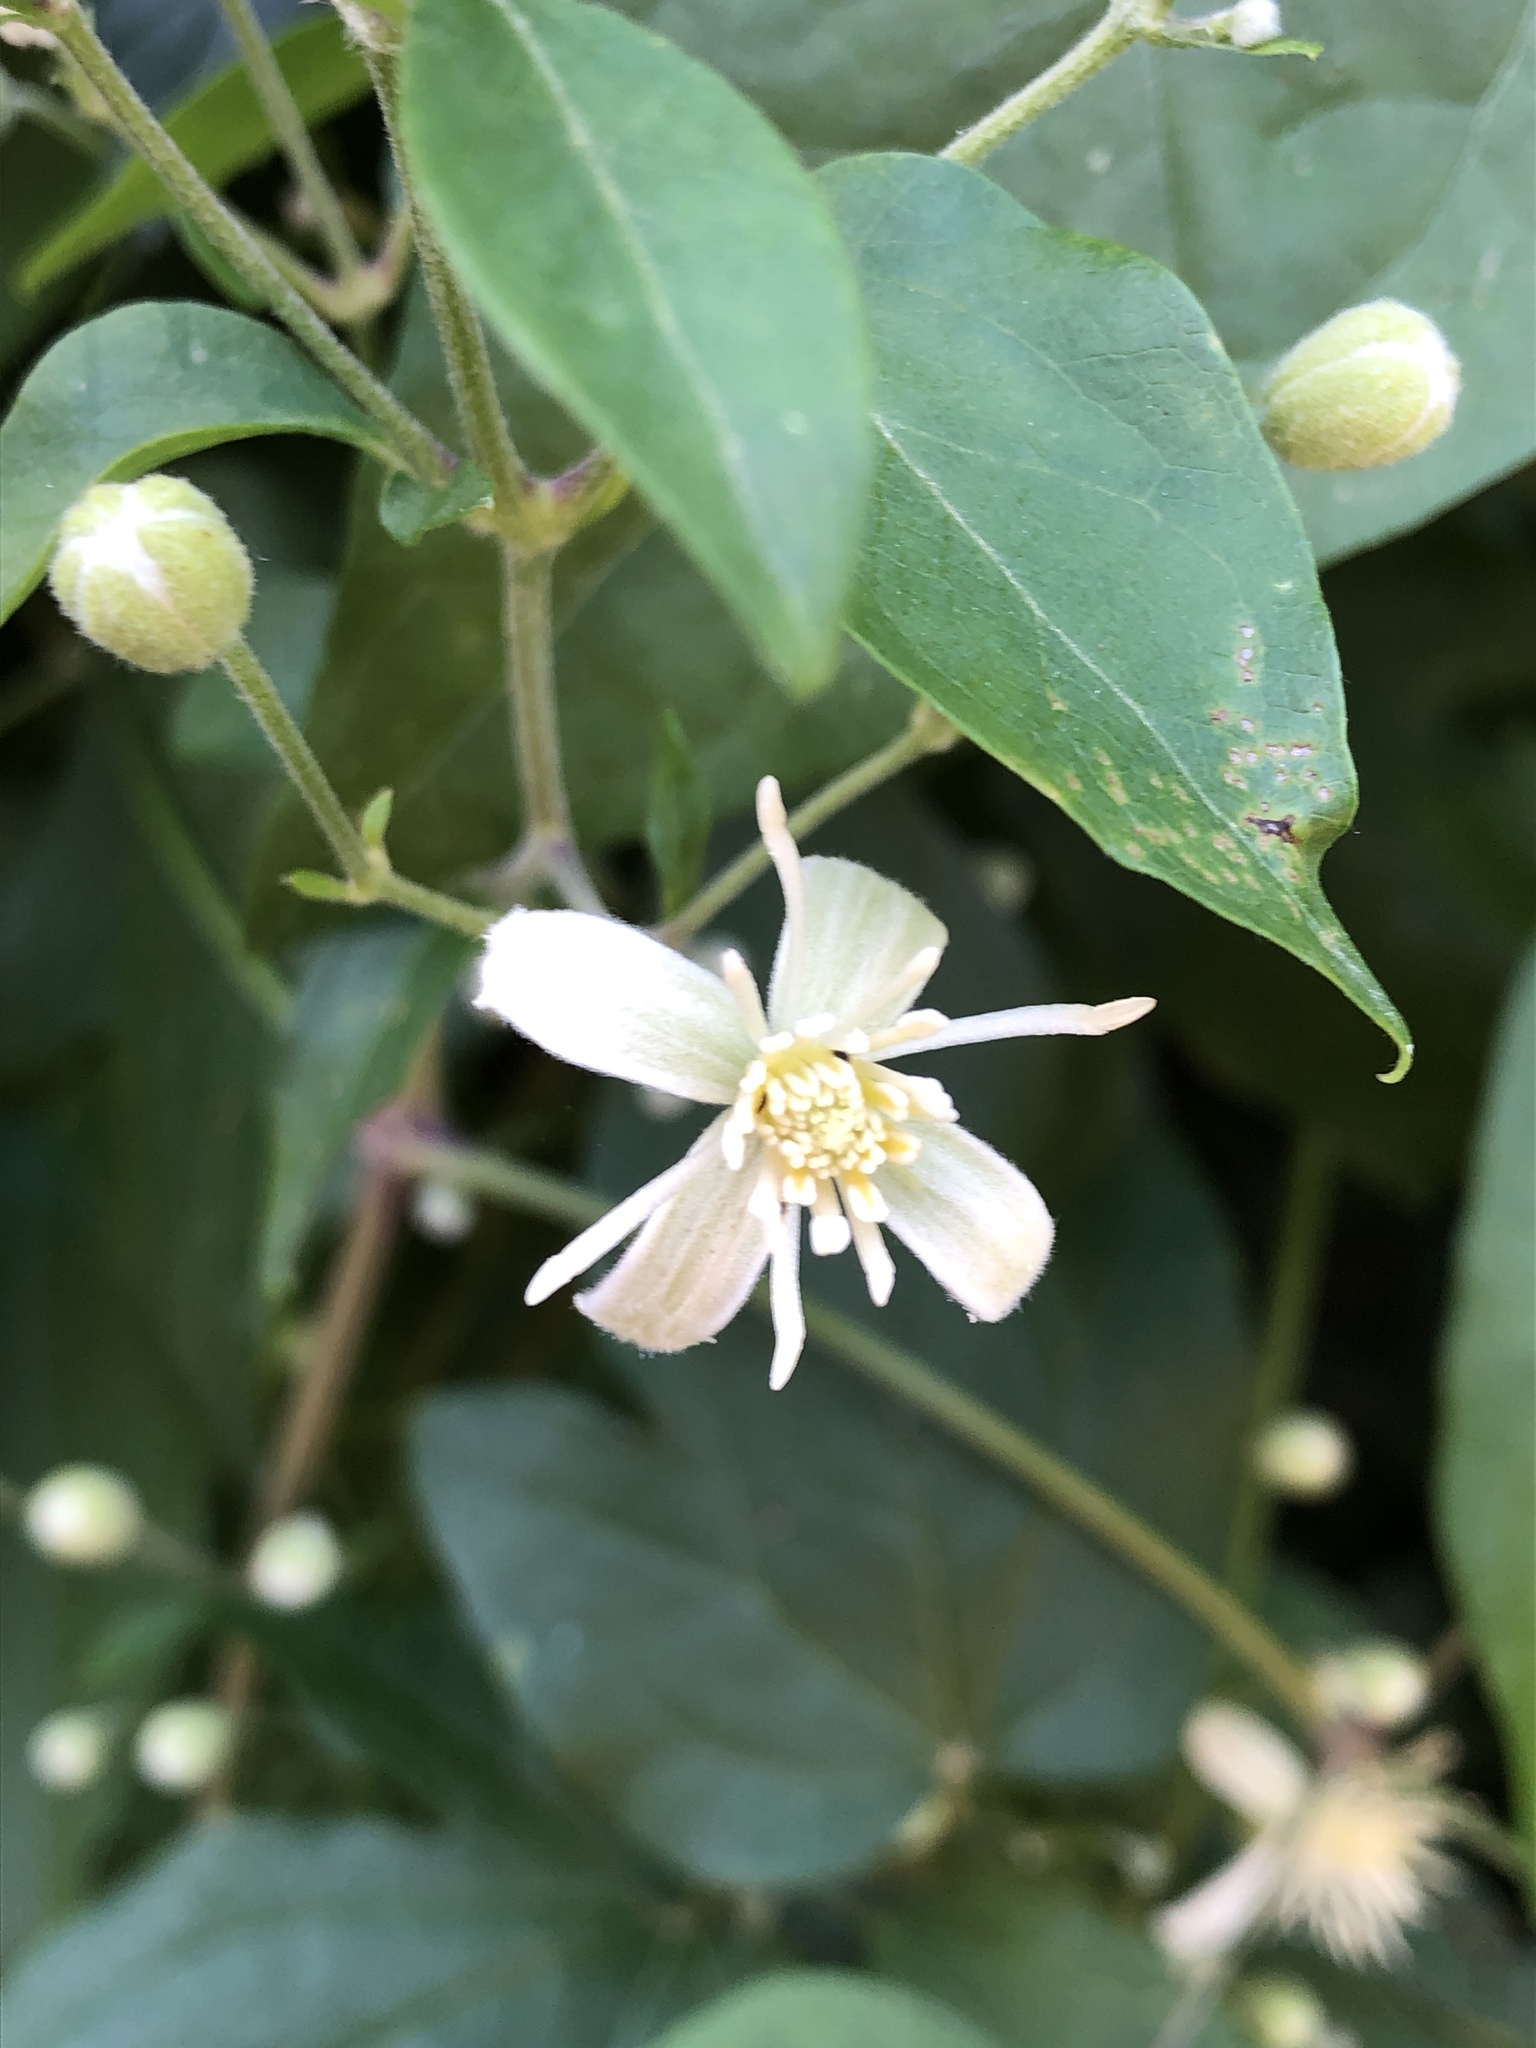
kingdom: Plantae
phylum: Tracheophyta
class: Magnoliopsida
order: Ranunculales
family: Ranunculaceae
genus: Clematis
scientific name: Clematis vitalba
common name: Evergreen clematis
